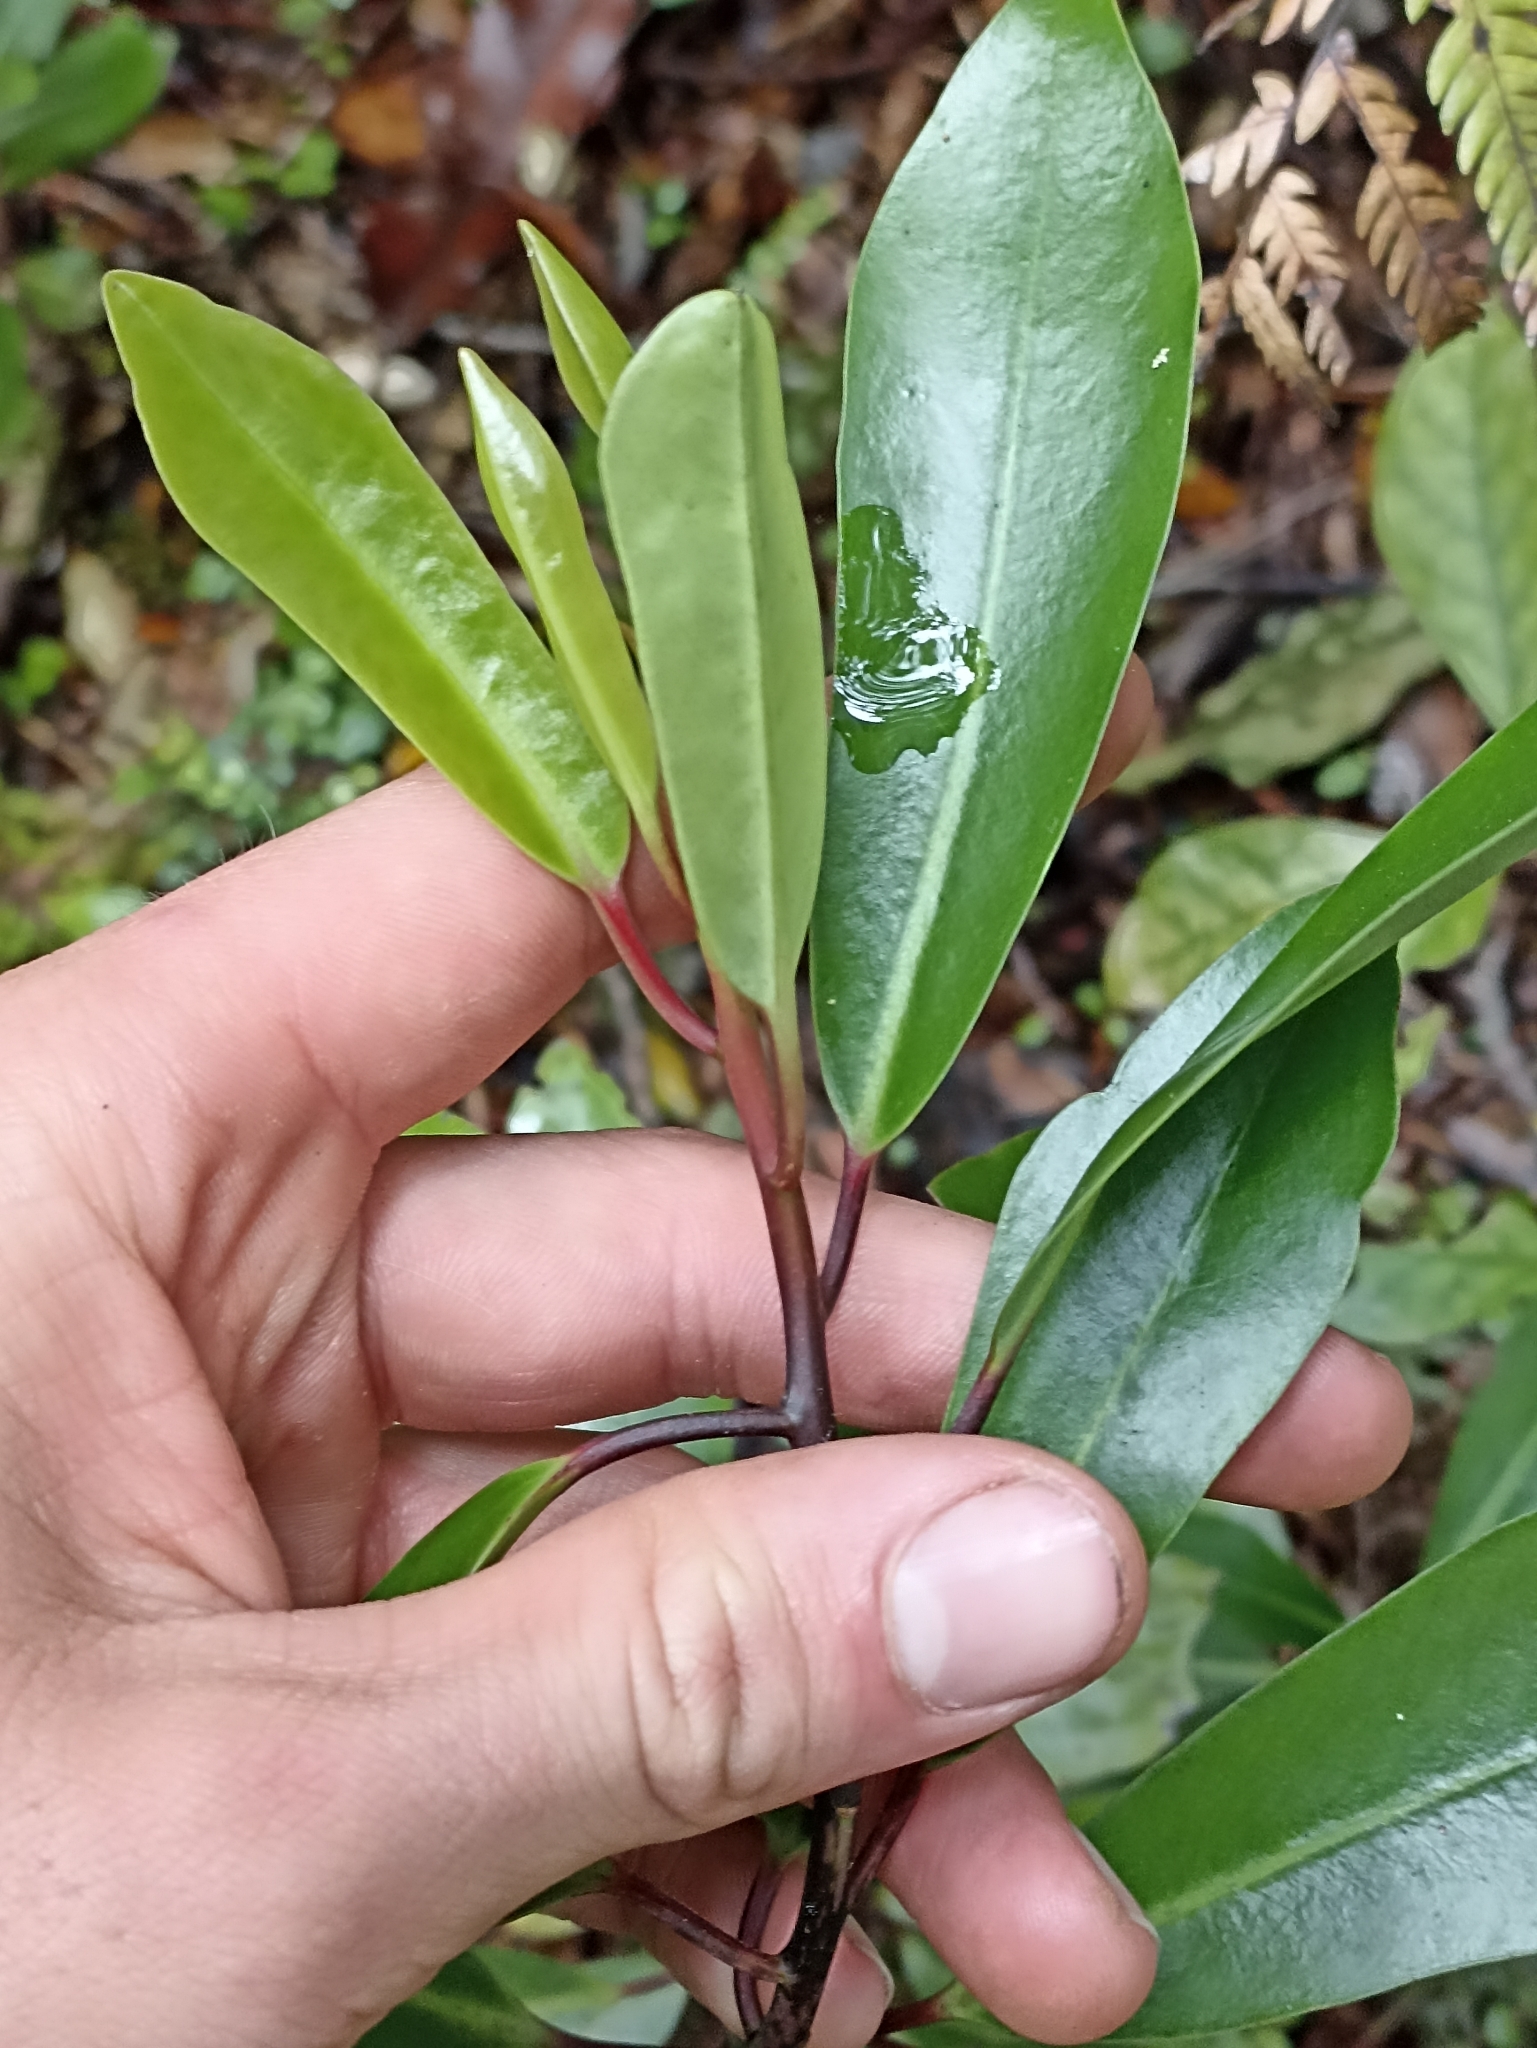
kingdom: Plantae
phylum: Tracheophyta
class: Magnoliopsida
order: Canellales
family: Winteraceae
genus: Pseudowintera
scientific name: Pseudowintera axillaris
